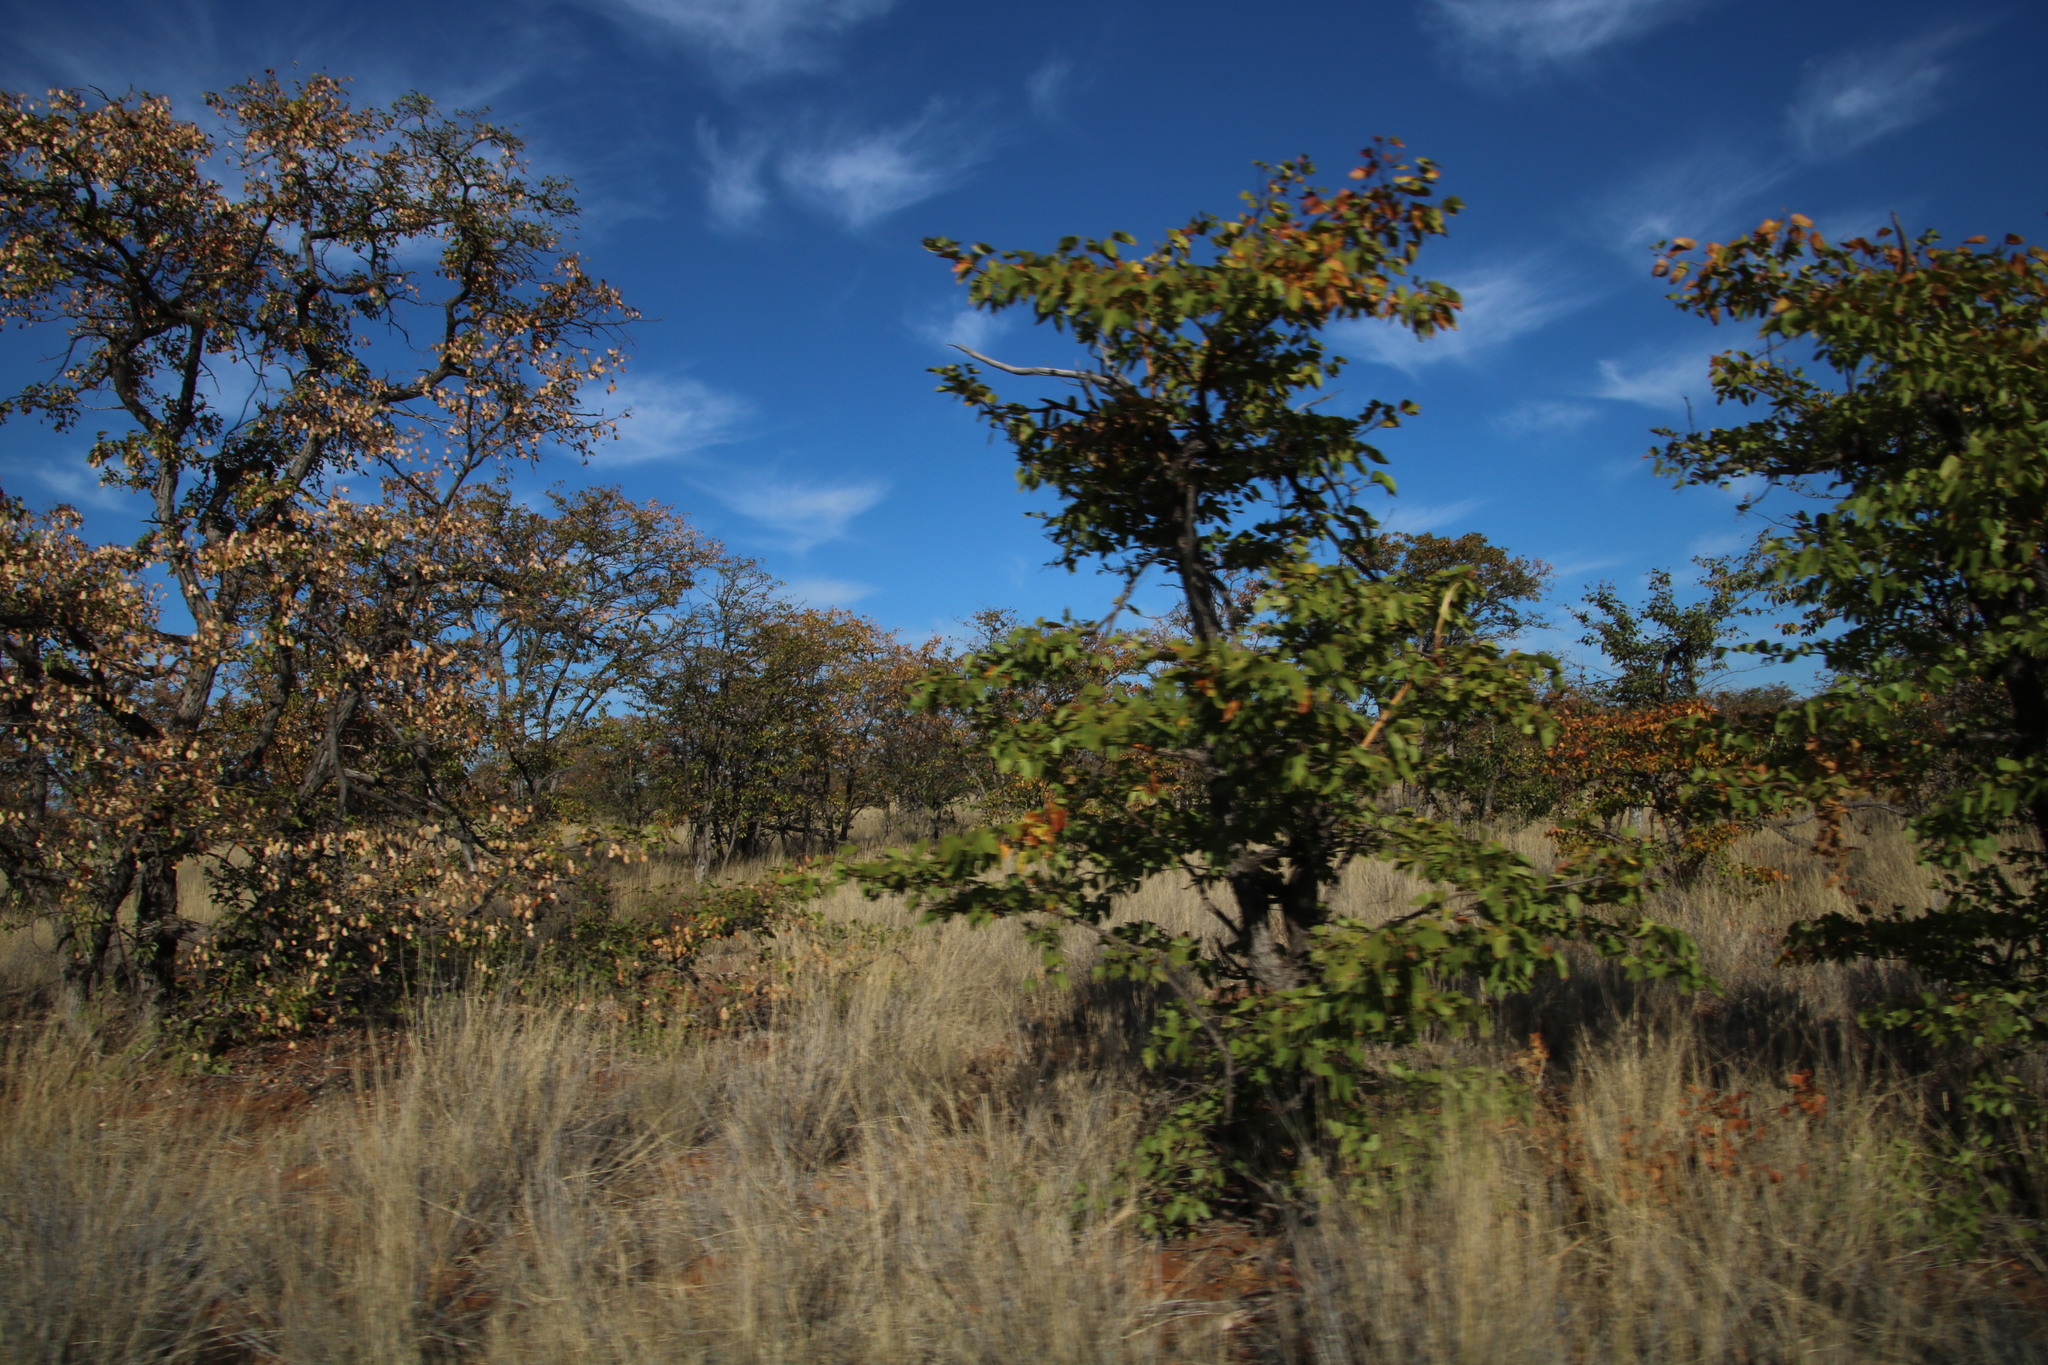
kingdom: Plantae
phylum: Tracheophyta
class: Magnoliopsida
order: Fabales
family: Fabaceae
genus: Colophospermum
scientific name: Colophospermum mopane
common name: Mopane
